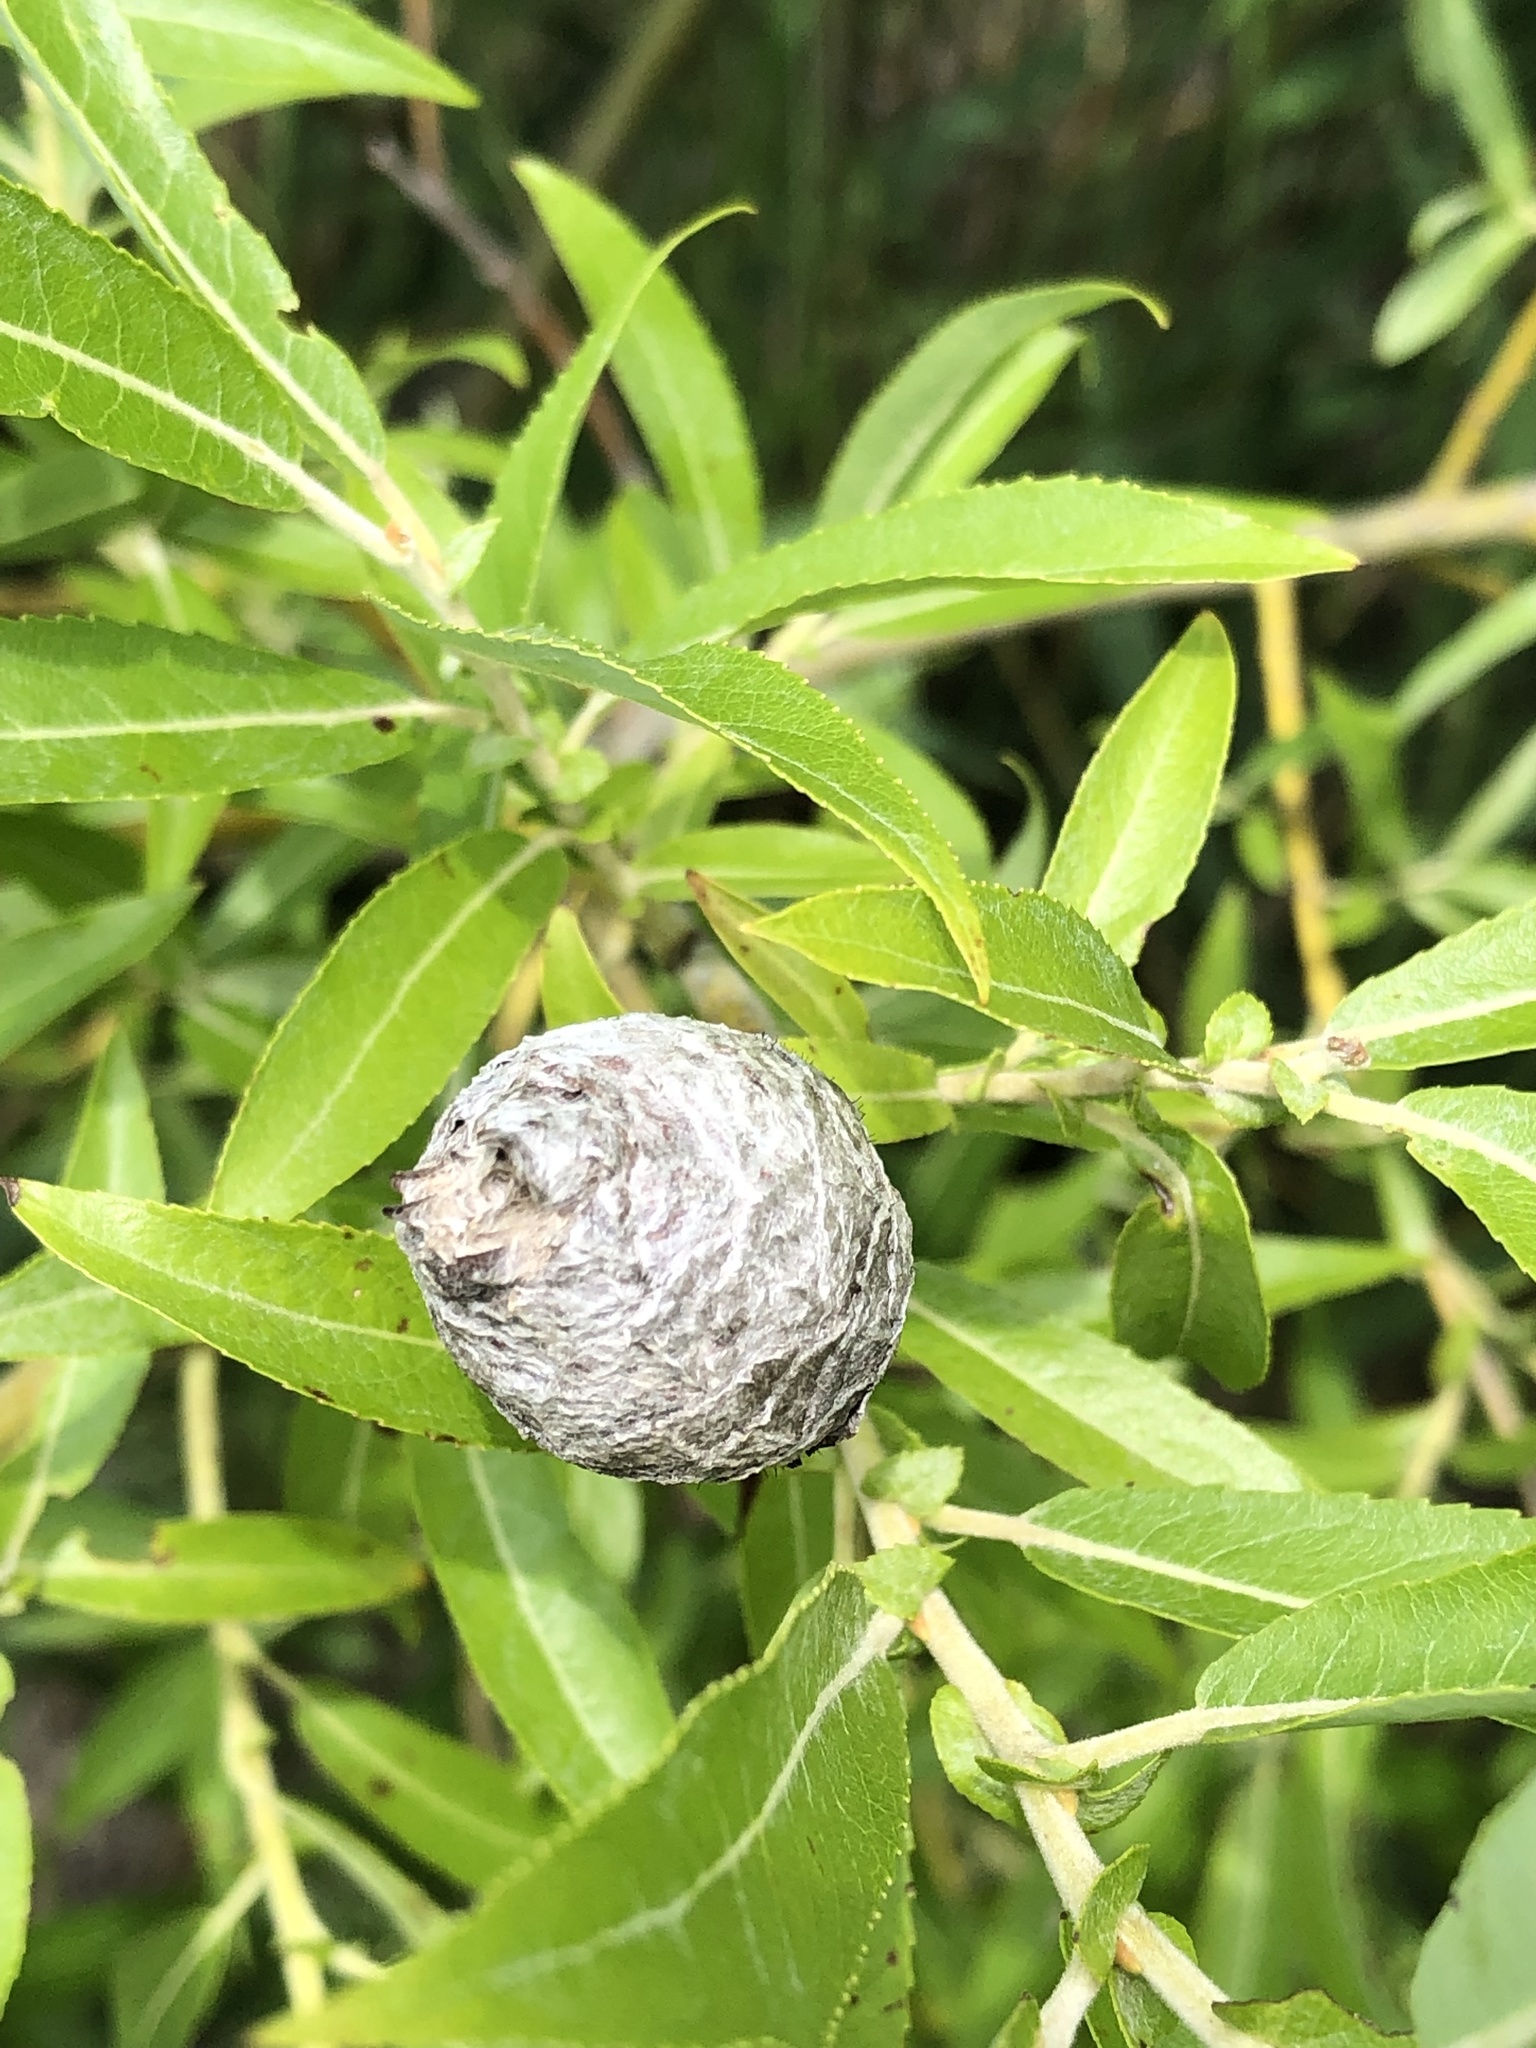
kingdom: Animalia
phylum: Arthropoda
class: Insecta
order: Diptera
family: Cecidomyiidae
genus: Rabdophaga
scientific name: Rabdophaga strobiloides
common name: Willow pinecone gall midge
